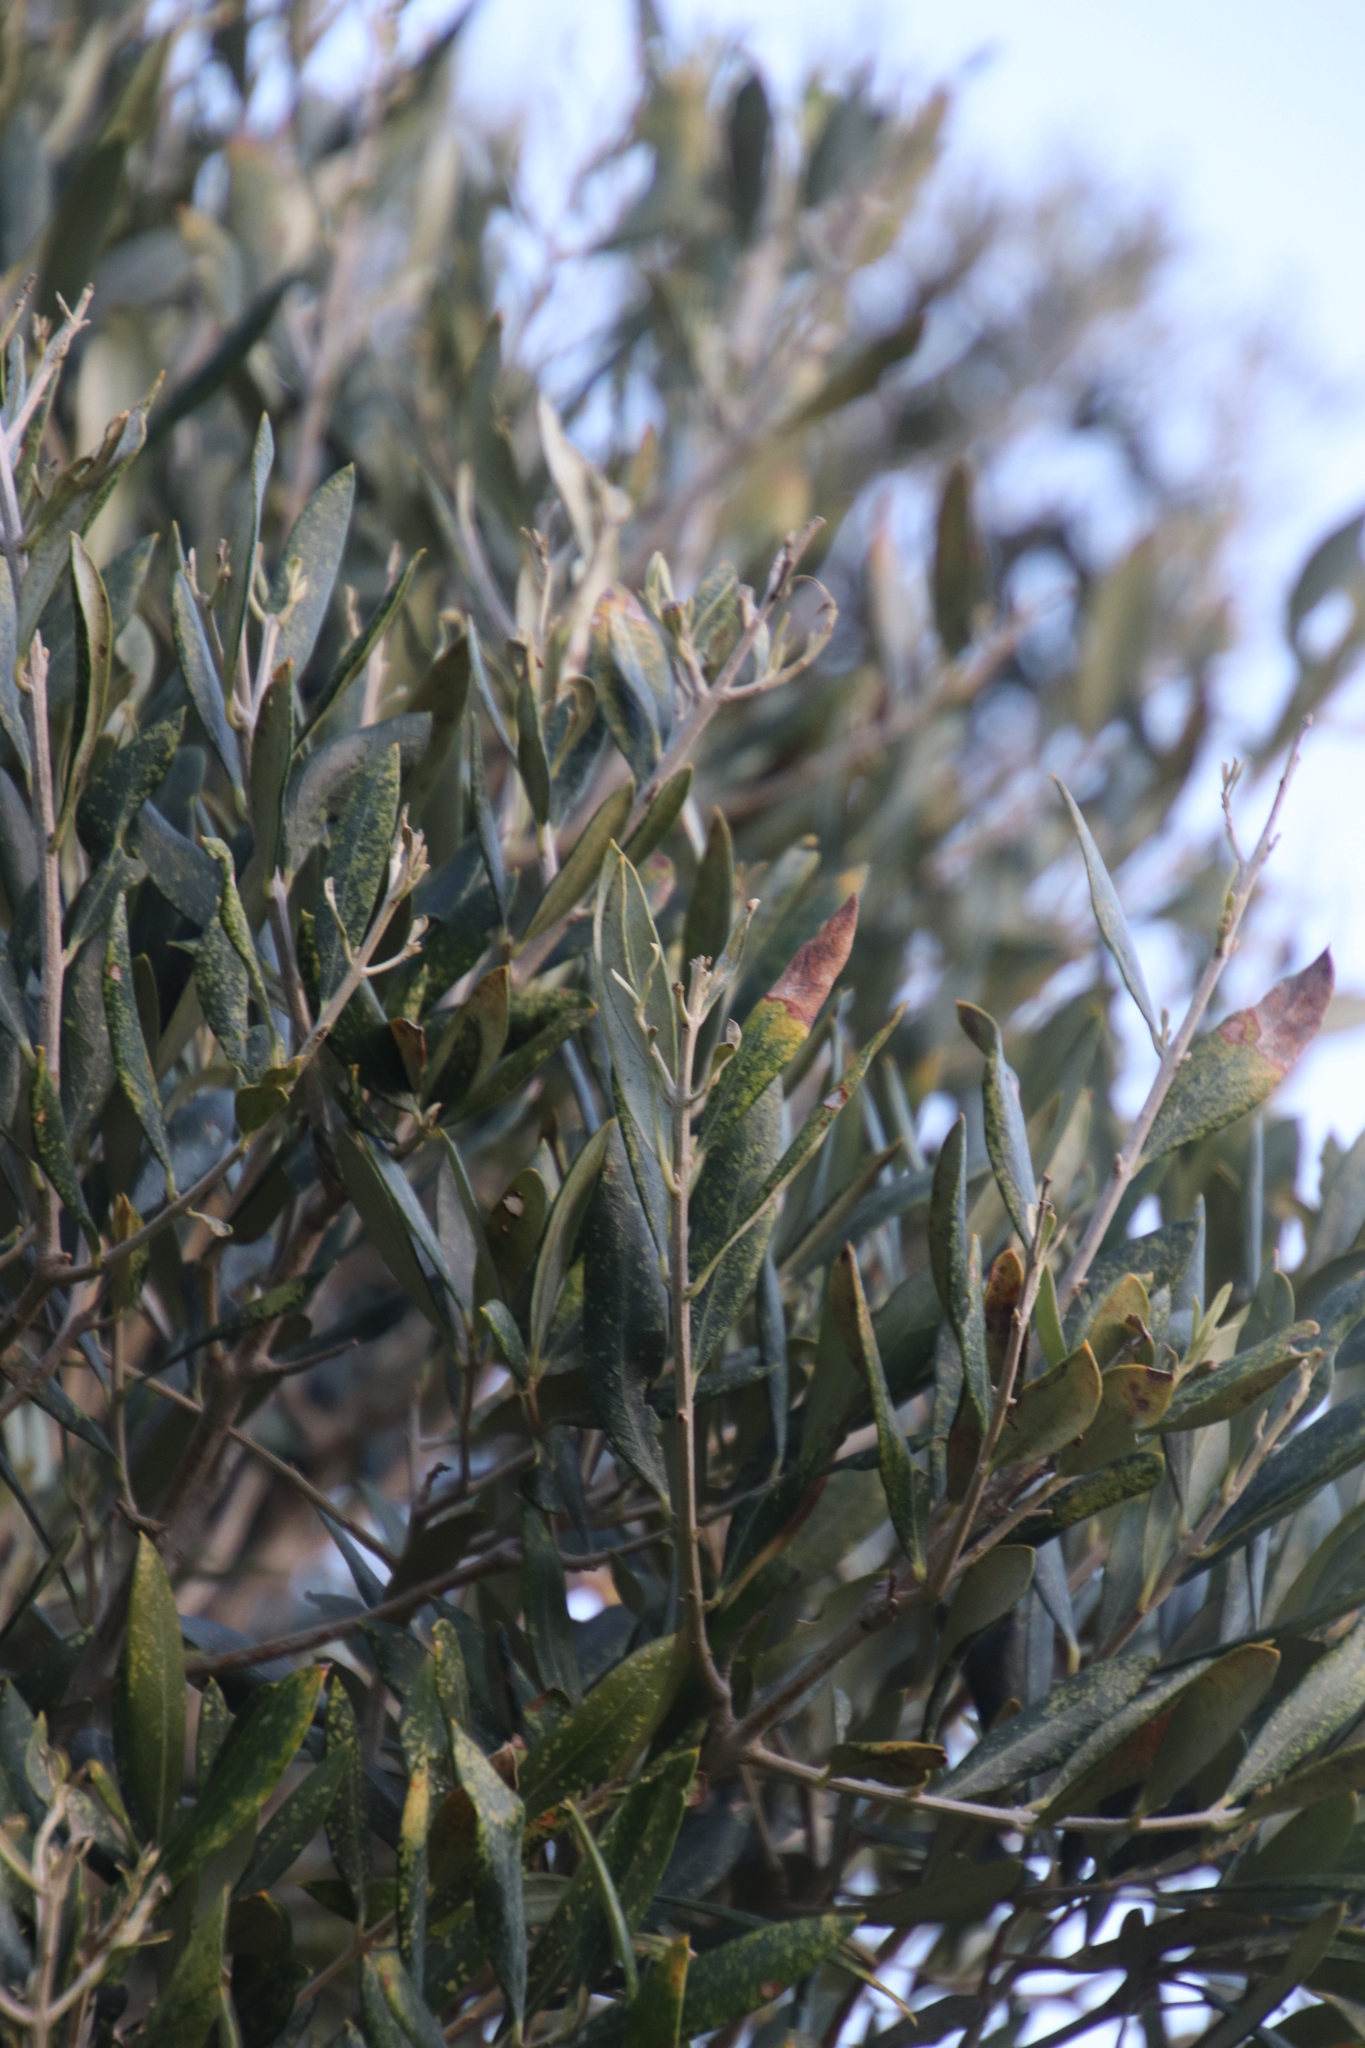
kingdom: Plantae
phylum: Tracheophyta
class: Magnoliopsida
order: Lamiales
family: Oleaceae
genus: Olea
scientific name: Olea europaea
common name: Olive
